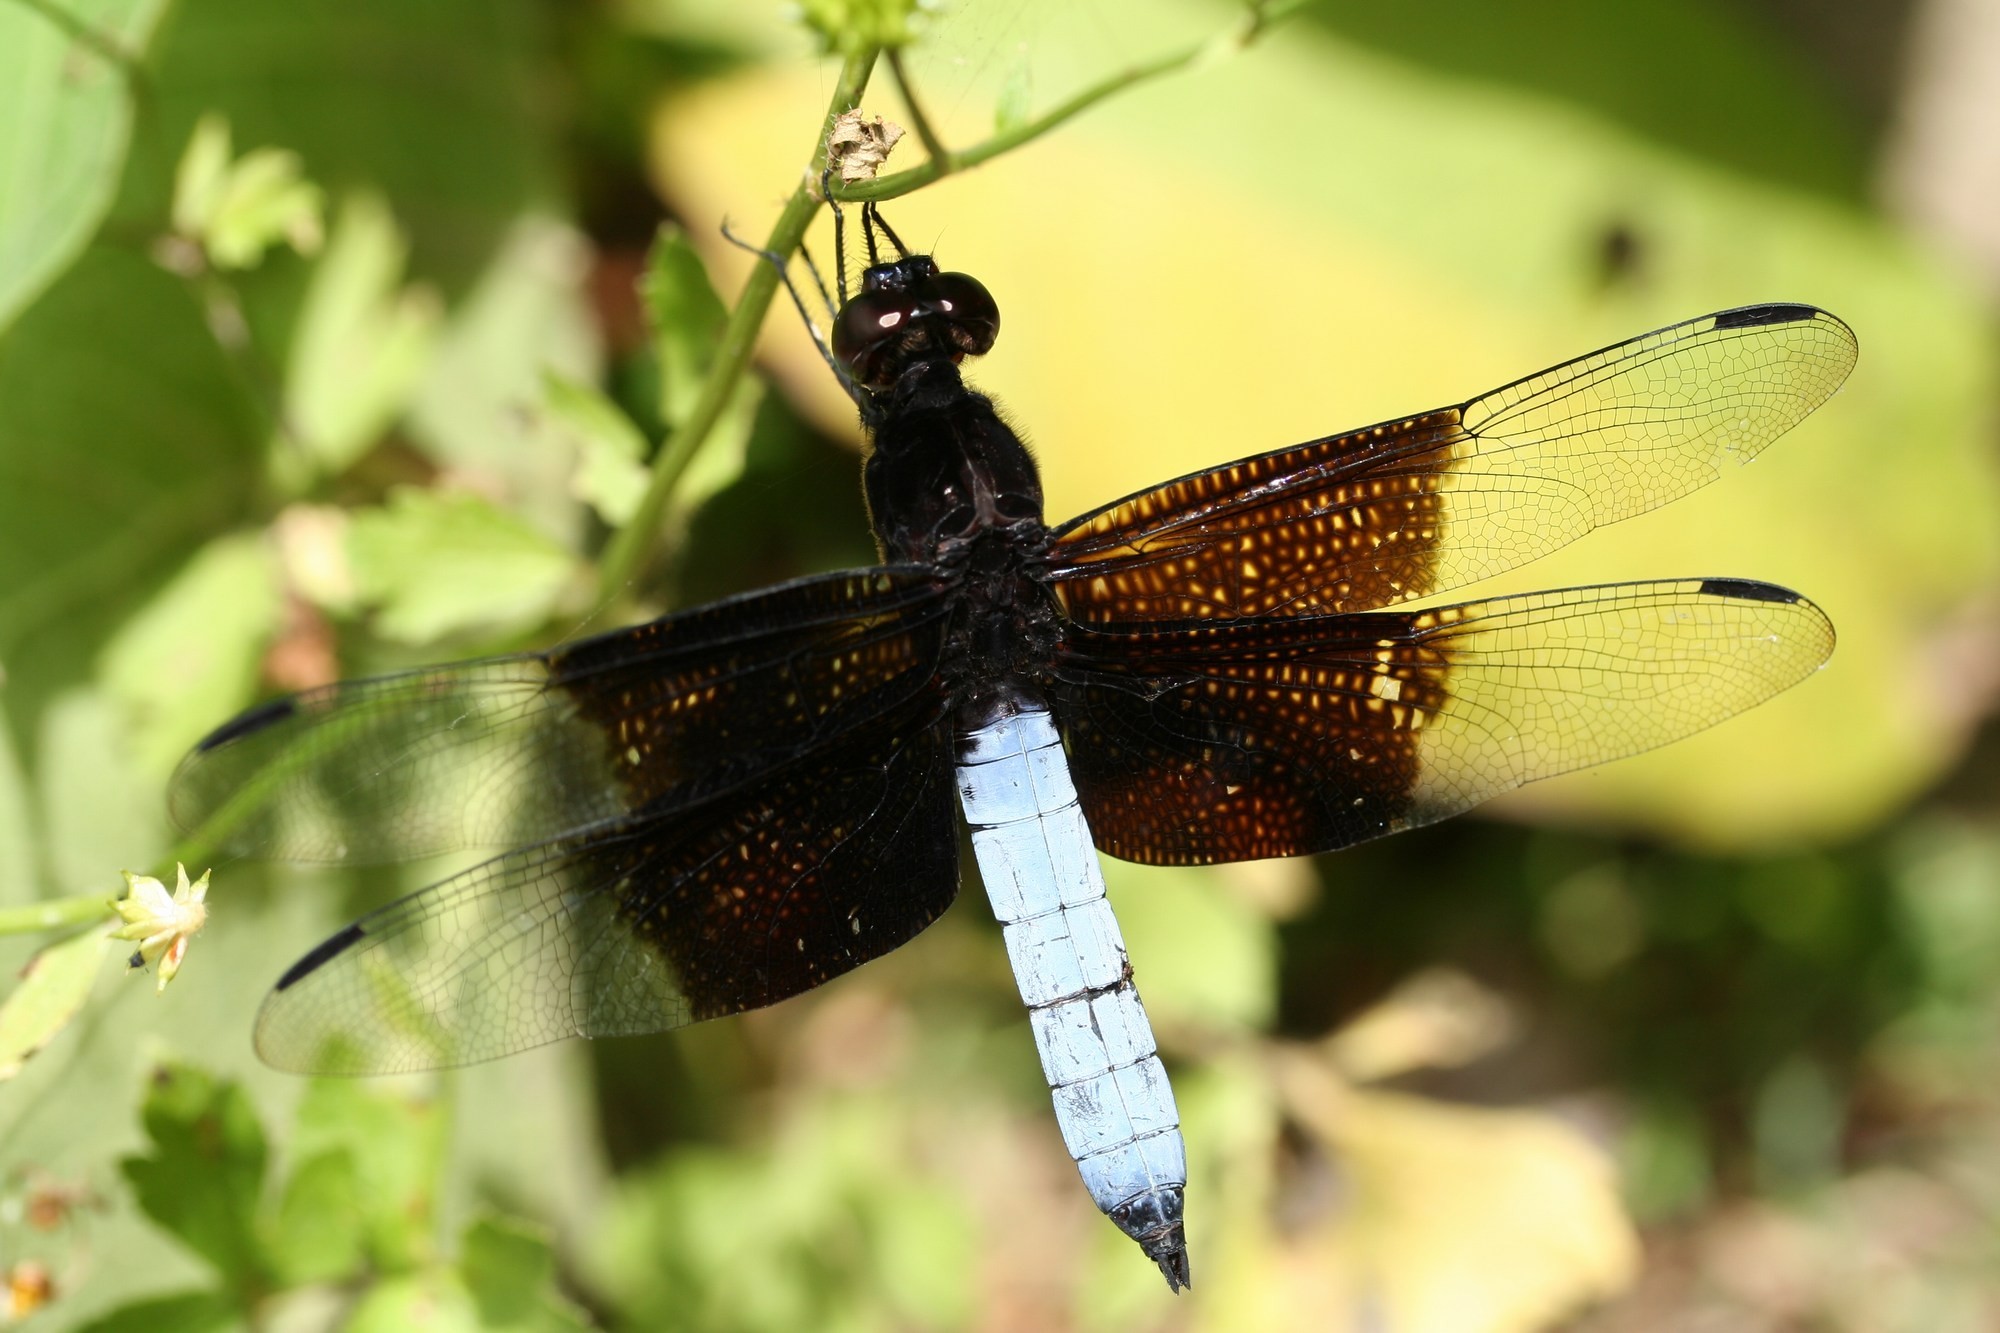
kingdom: Animalia
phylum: Arthropoda
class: Insecta
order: Odonata
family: Libellulidae
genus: Thermorthemis
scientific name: Thermorthemis madagascariensis
